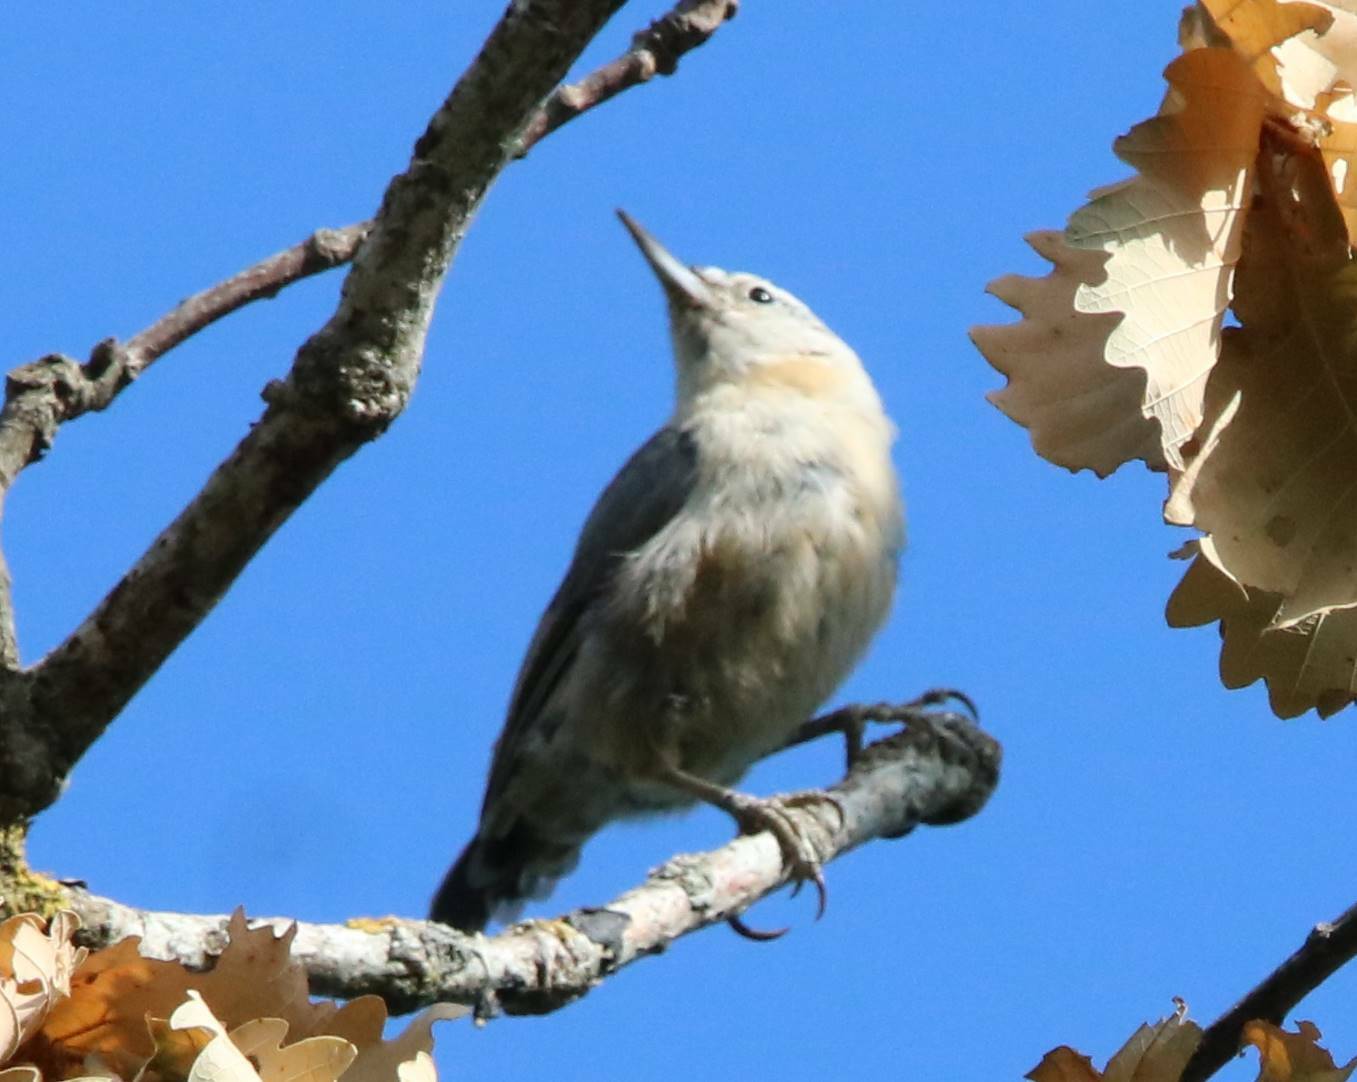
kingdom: Animalia
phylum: Chordata
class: Aves
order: Passeriformes
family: Sittidae
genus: Sitta
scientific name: Sitta ledanti
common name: Algerian nuthatch
